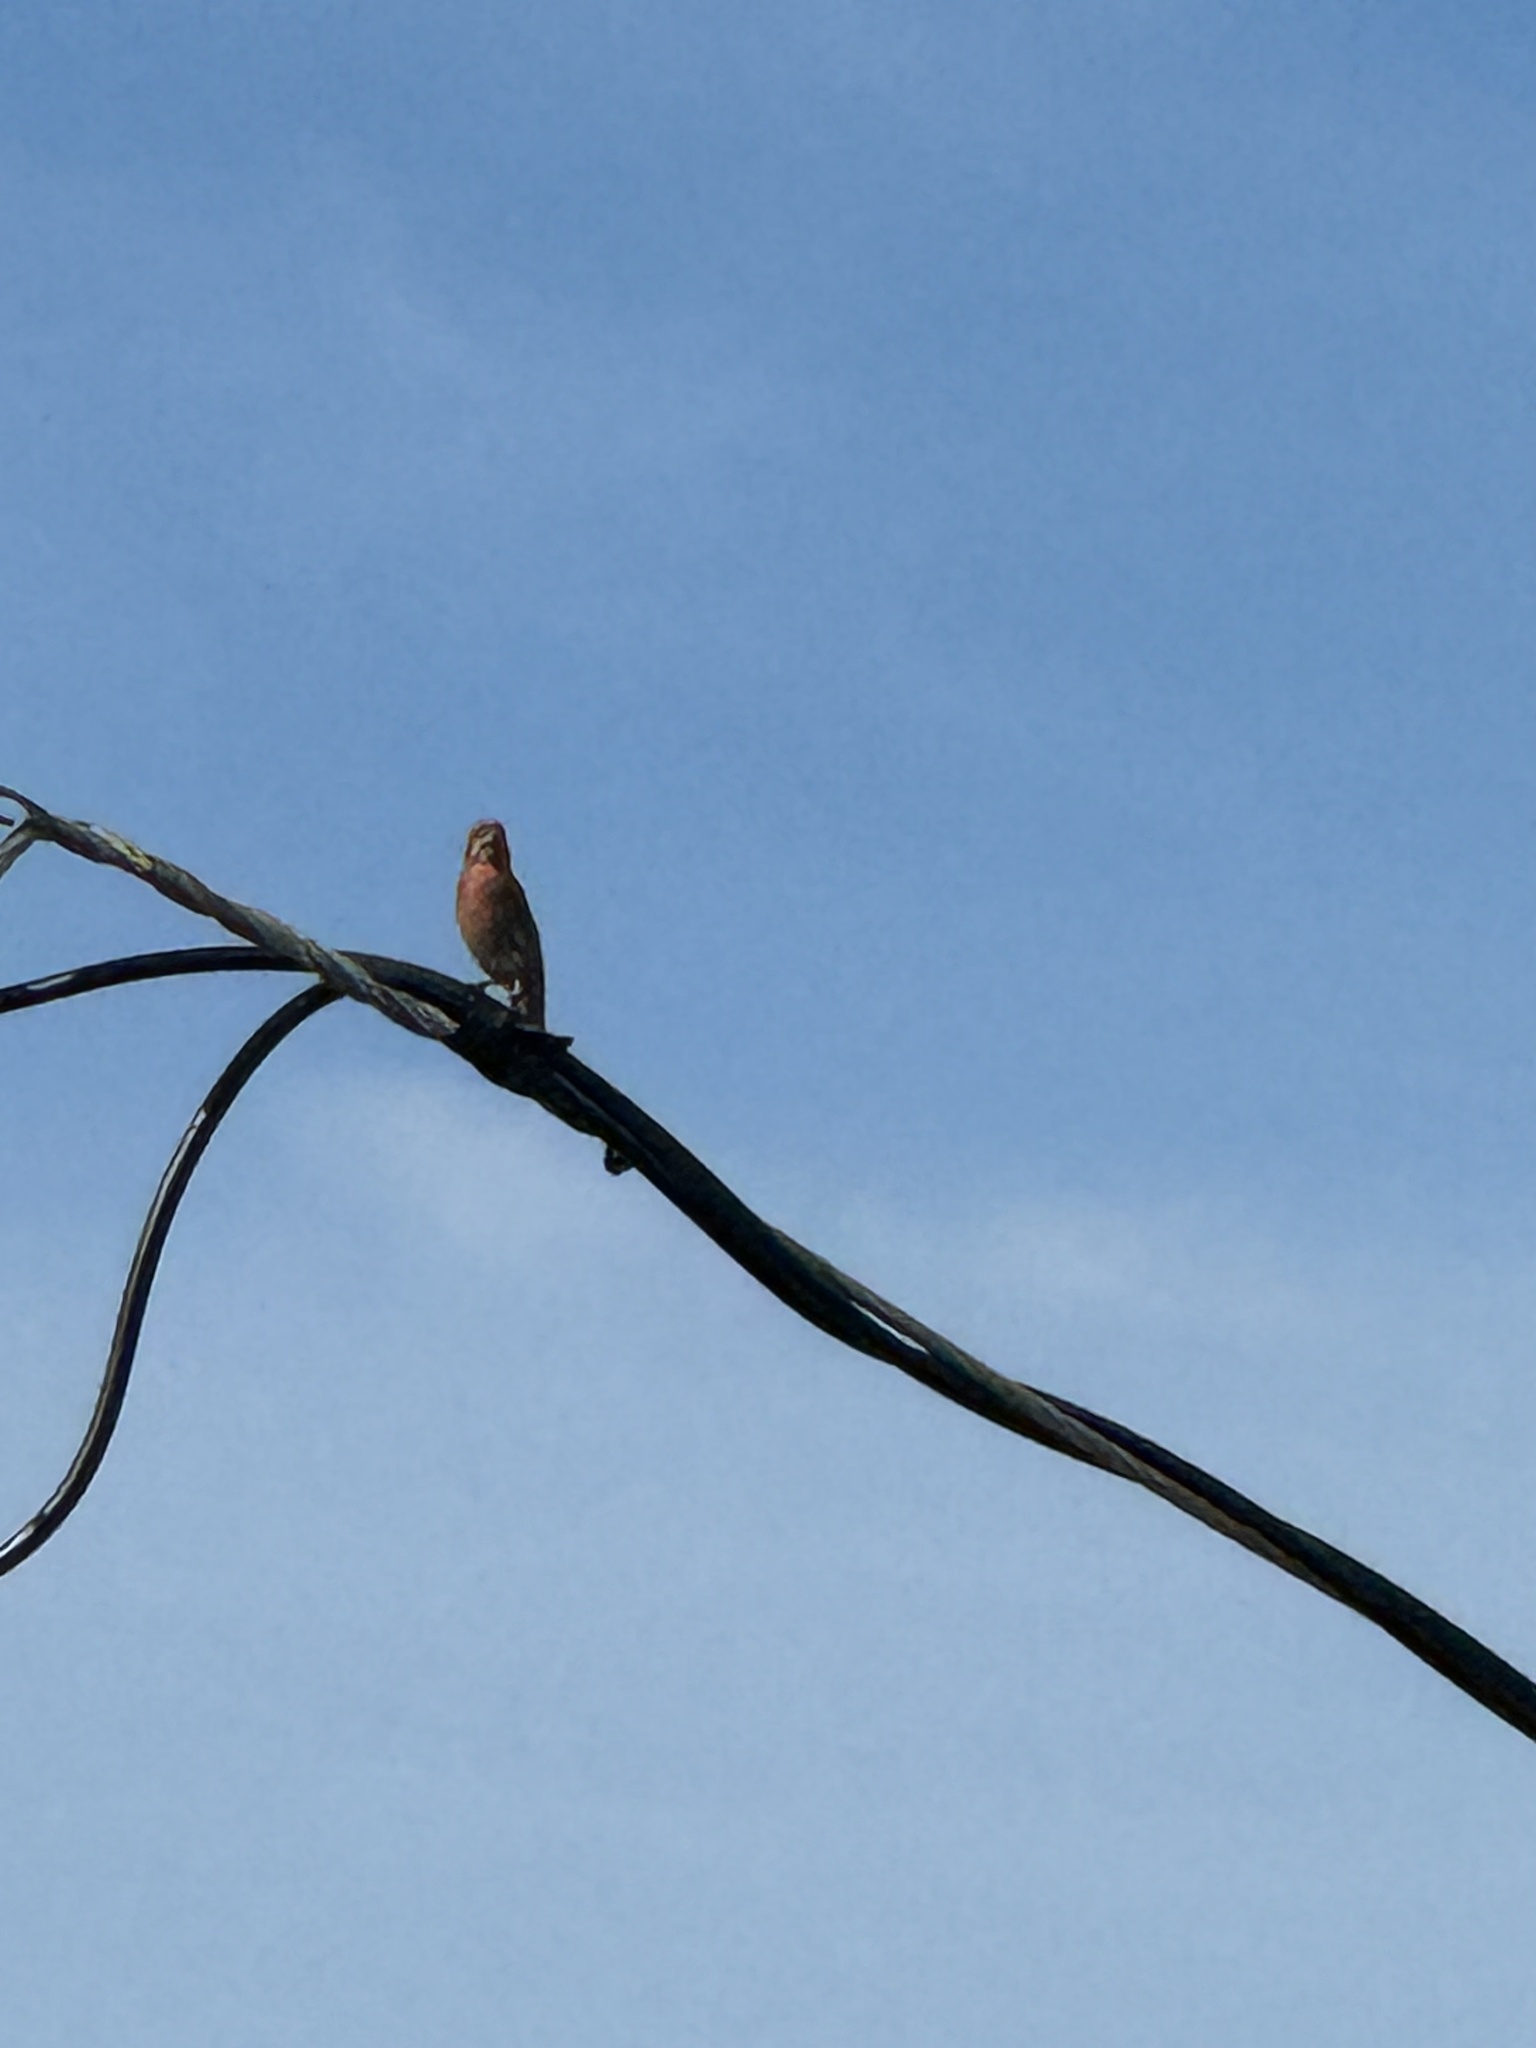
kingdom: Animalia
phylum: Chordata
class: Aves
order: Passeriformes
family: Fringillidae
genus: Haemorhous
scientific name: Haemorhous mexicanus
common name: House finch
